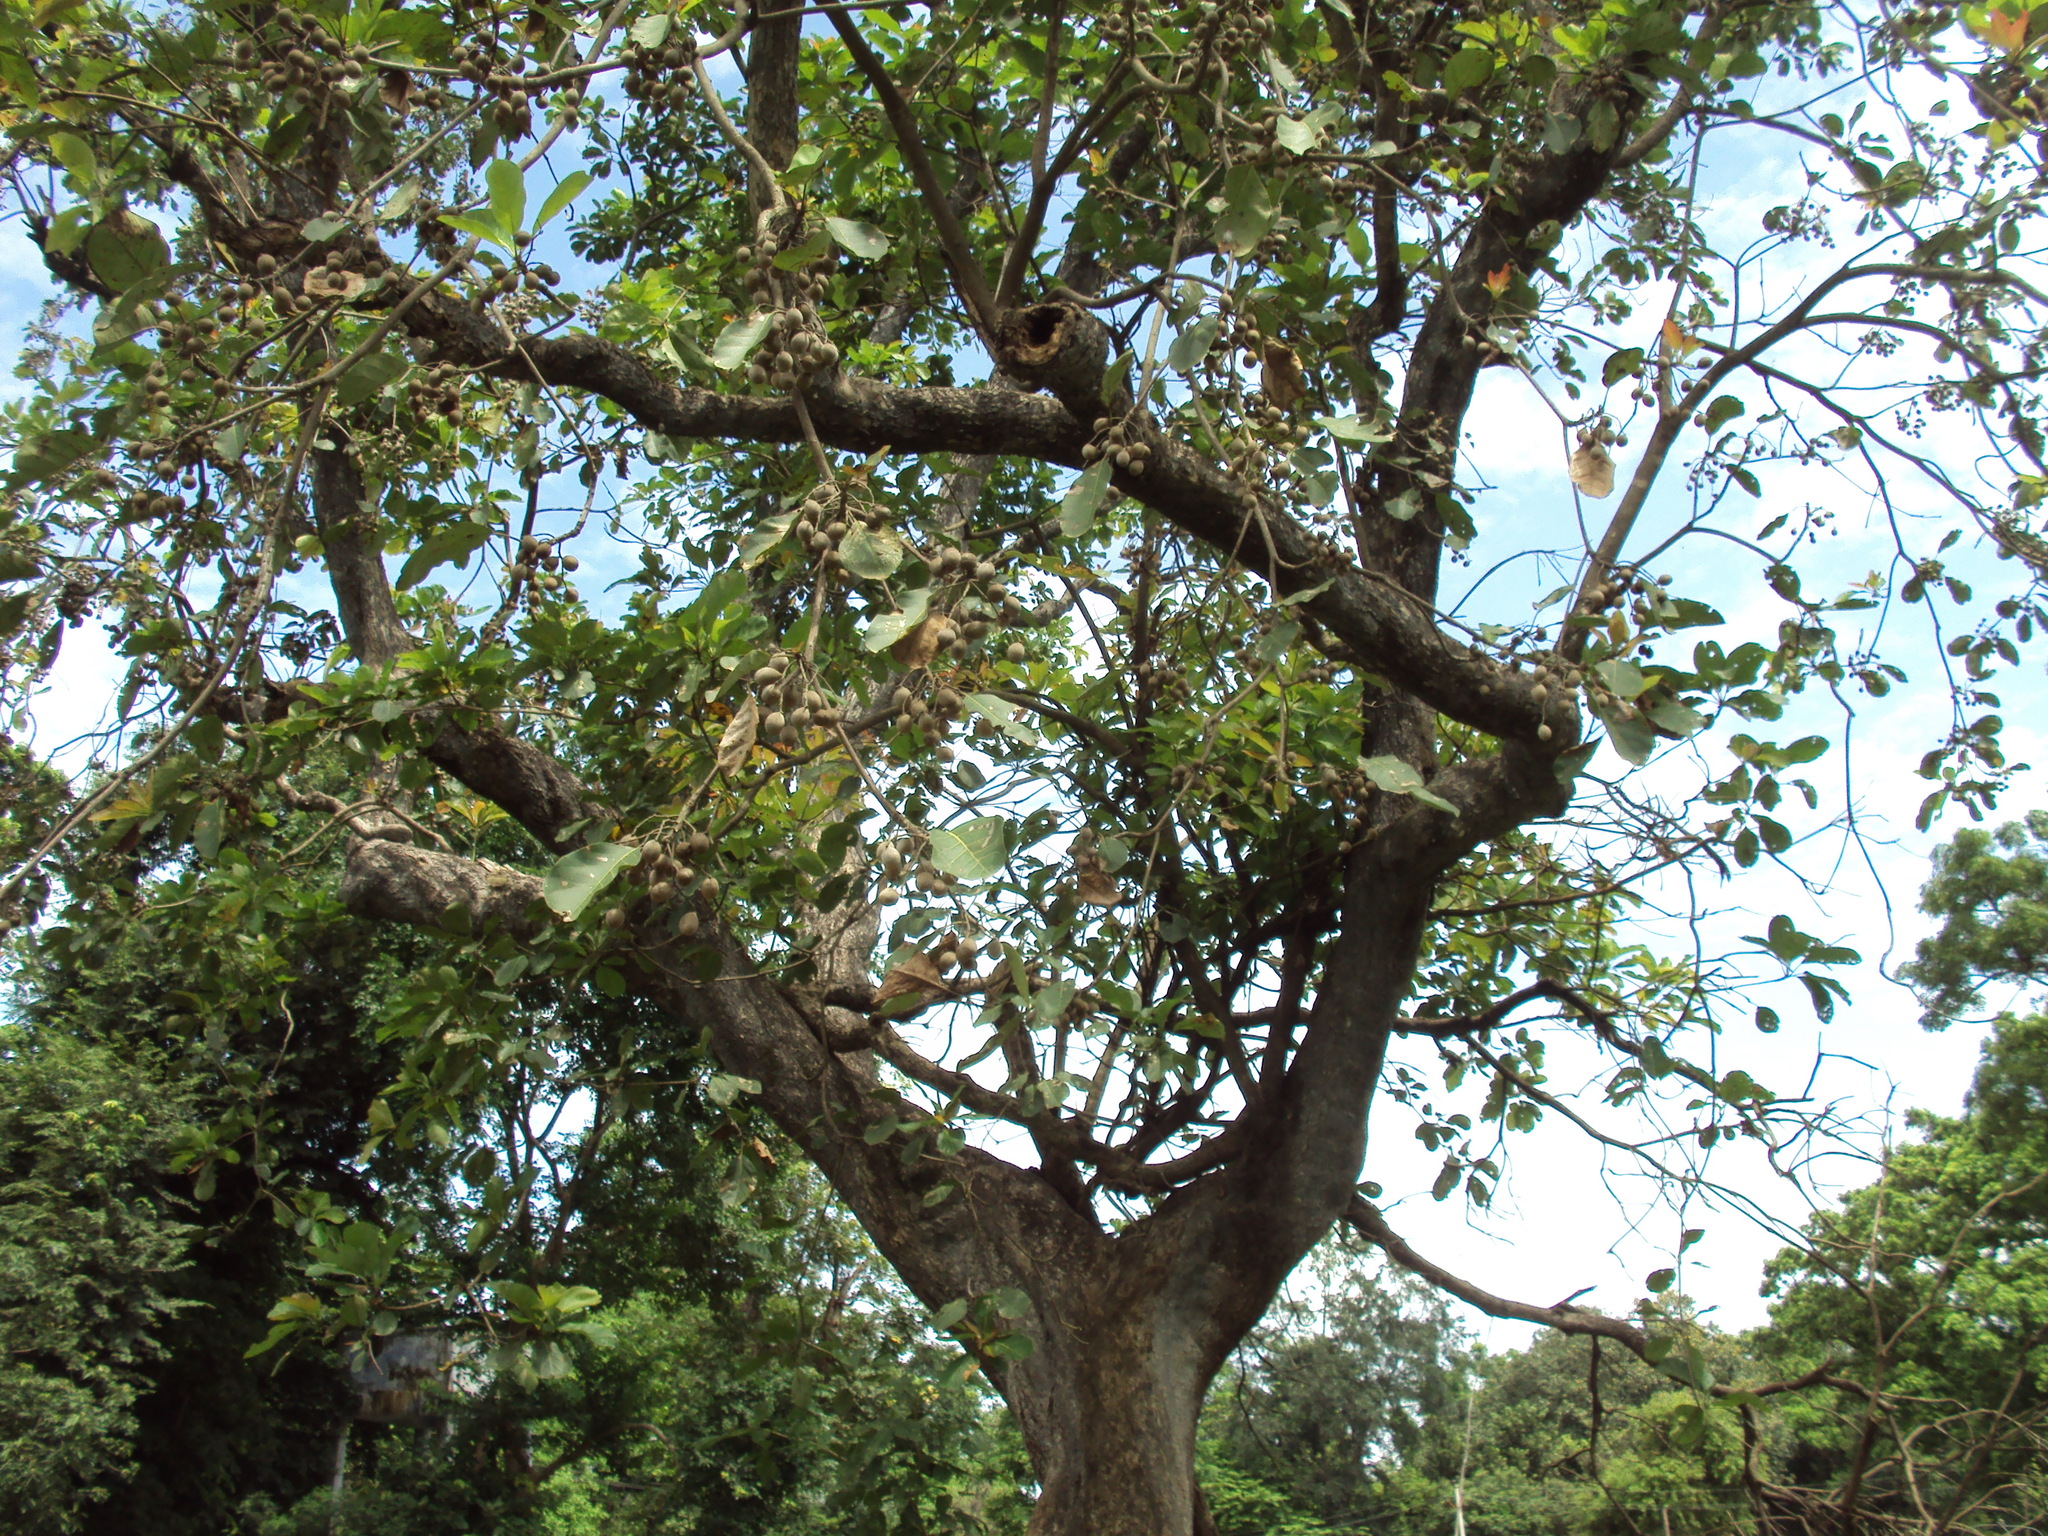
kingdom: Plantae
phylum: Tracheophyta
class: Magnoliopsida
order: Myrtales
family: Combretaceae
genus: Terminalia
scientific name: Terminalia bellirica
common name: Beleric myrobalan
